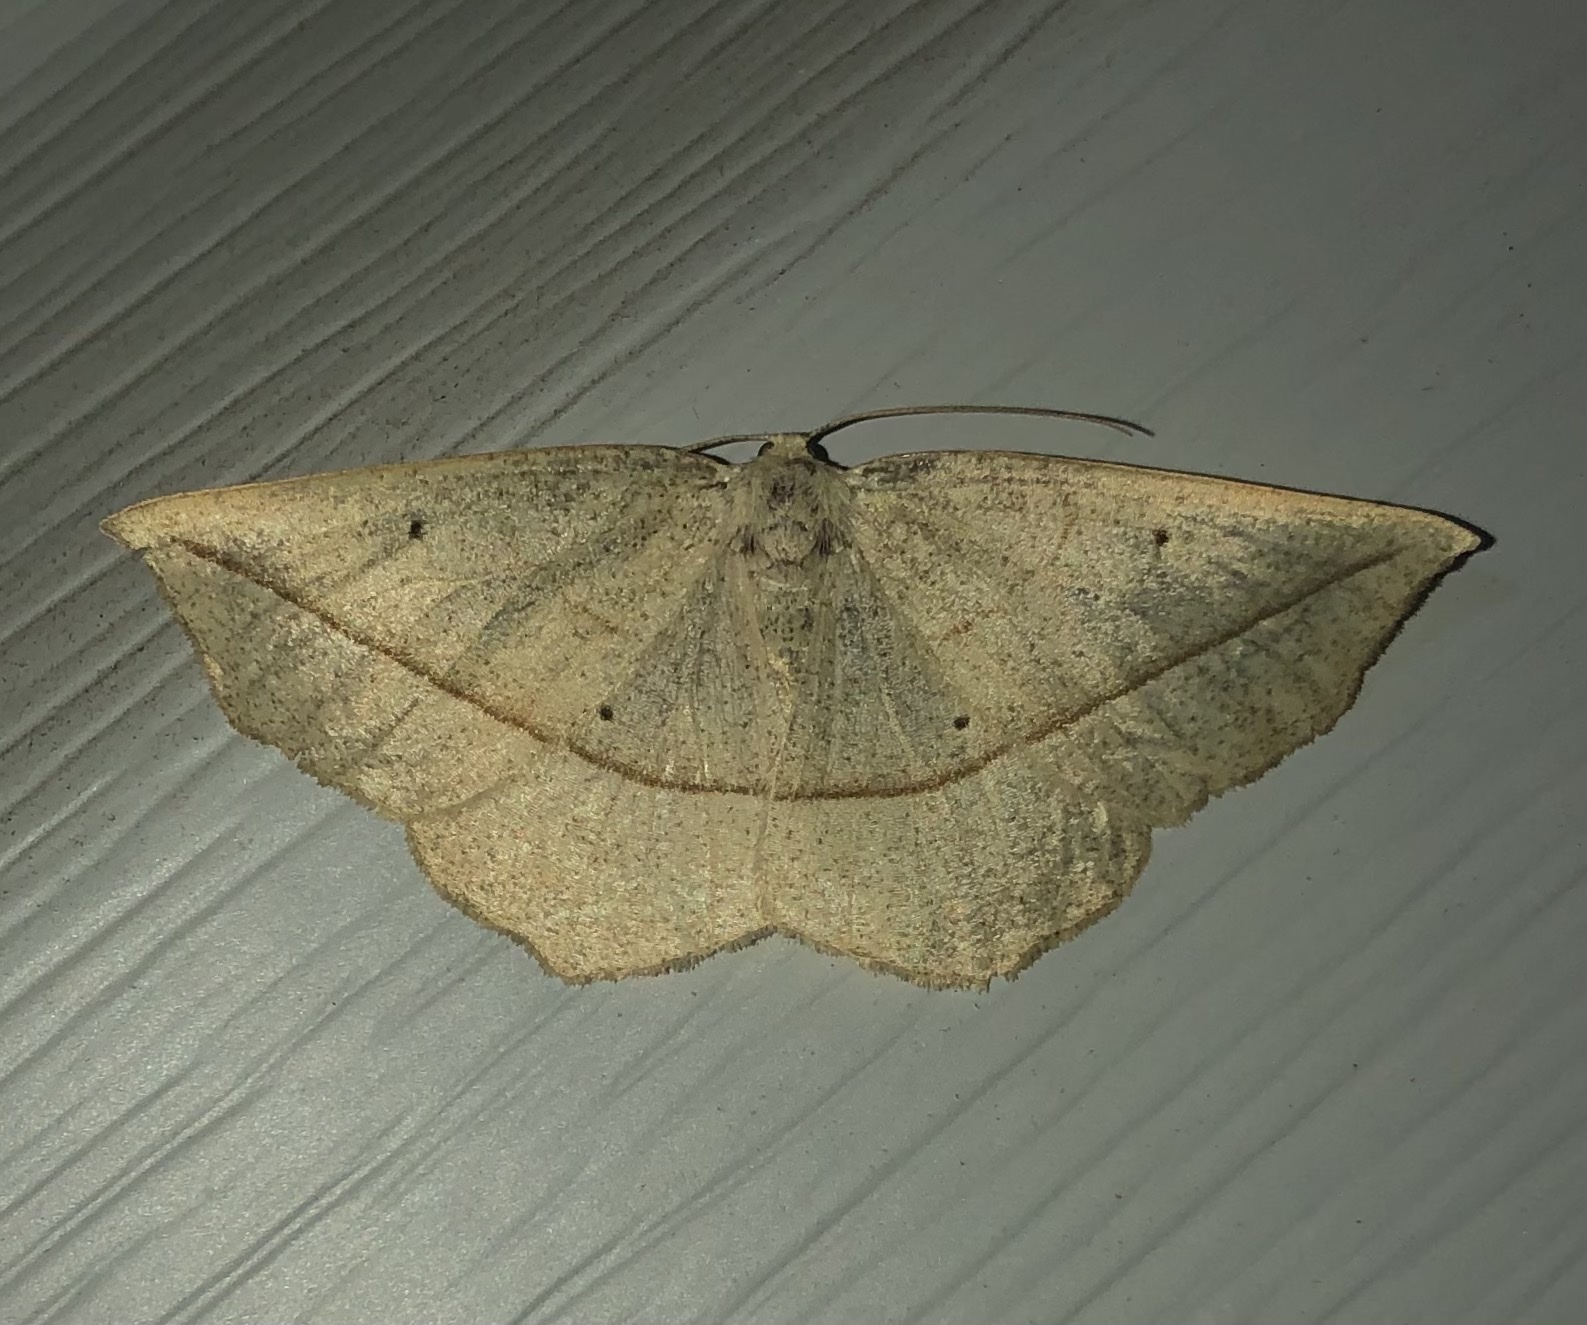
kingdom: Animalia
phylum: Arthropoda
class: Insecta
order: Lepidoptera
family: Geometridae
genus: Eusarca
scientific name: Eusarca confusaria
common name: Confused eusarca
